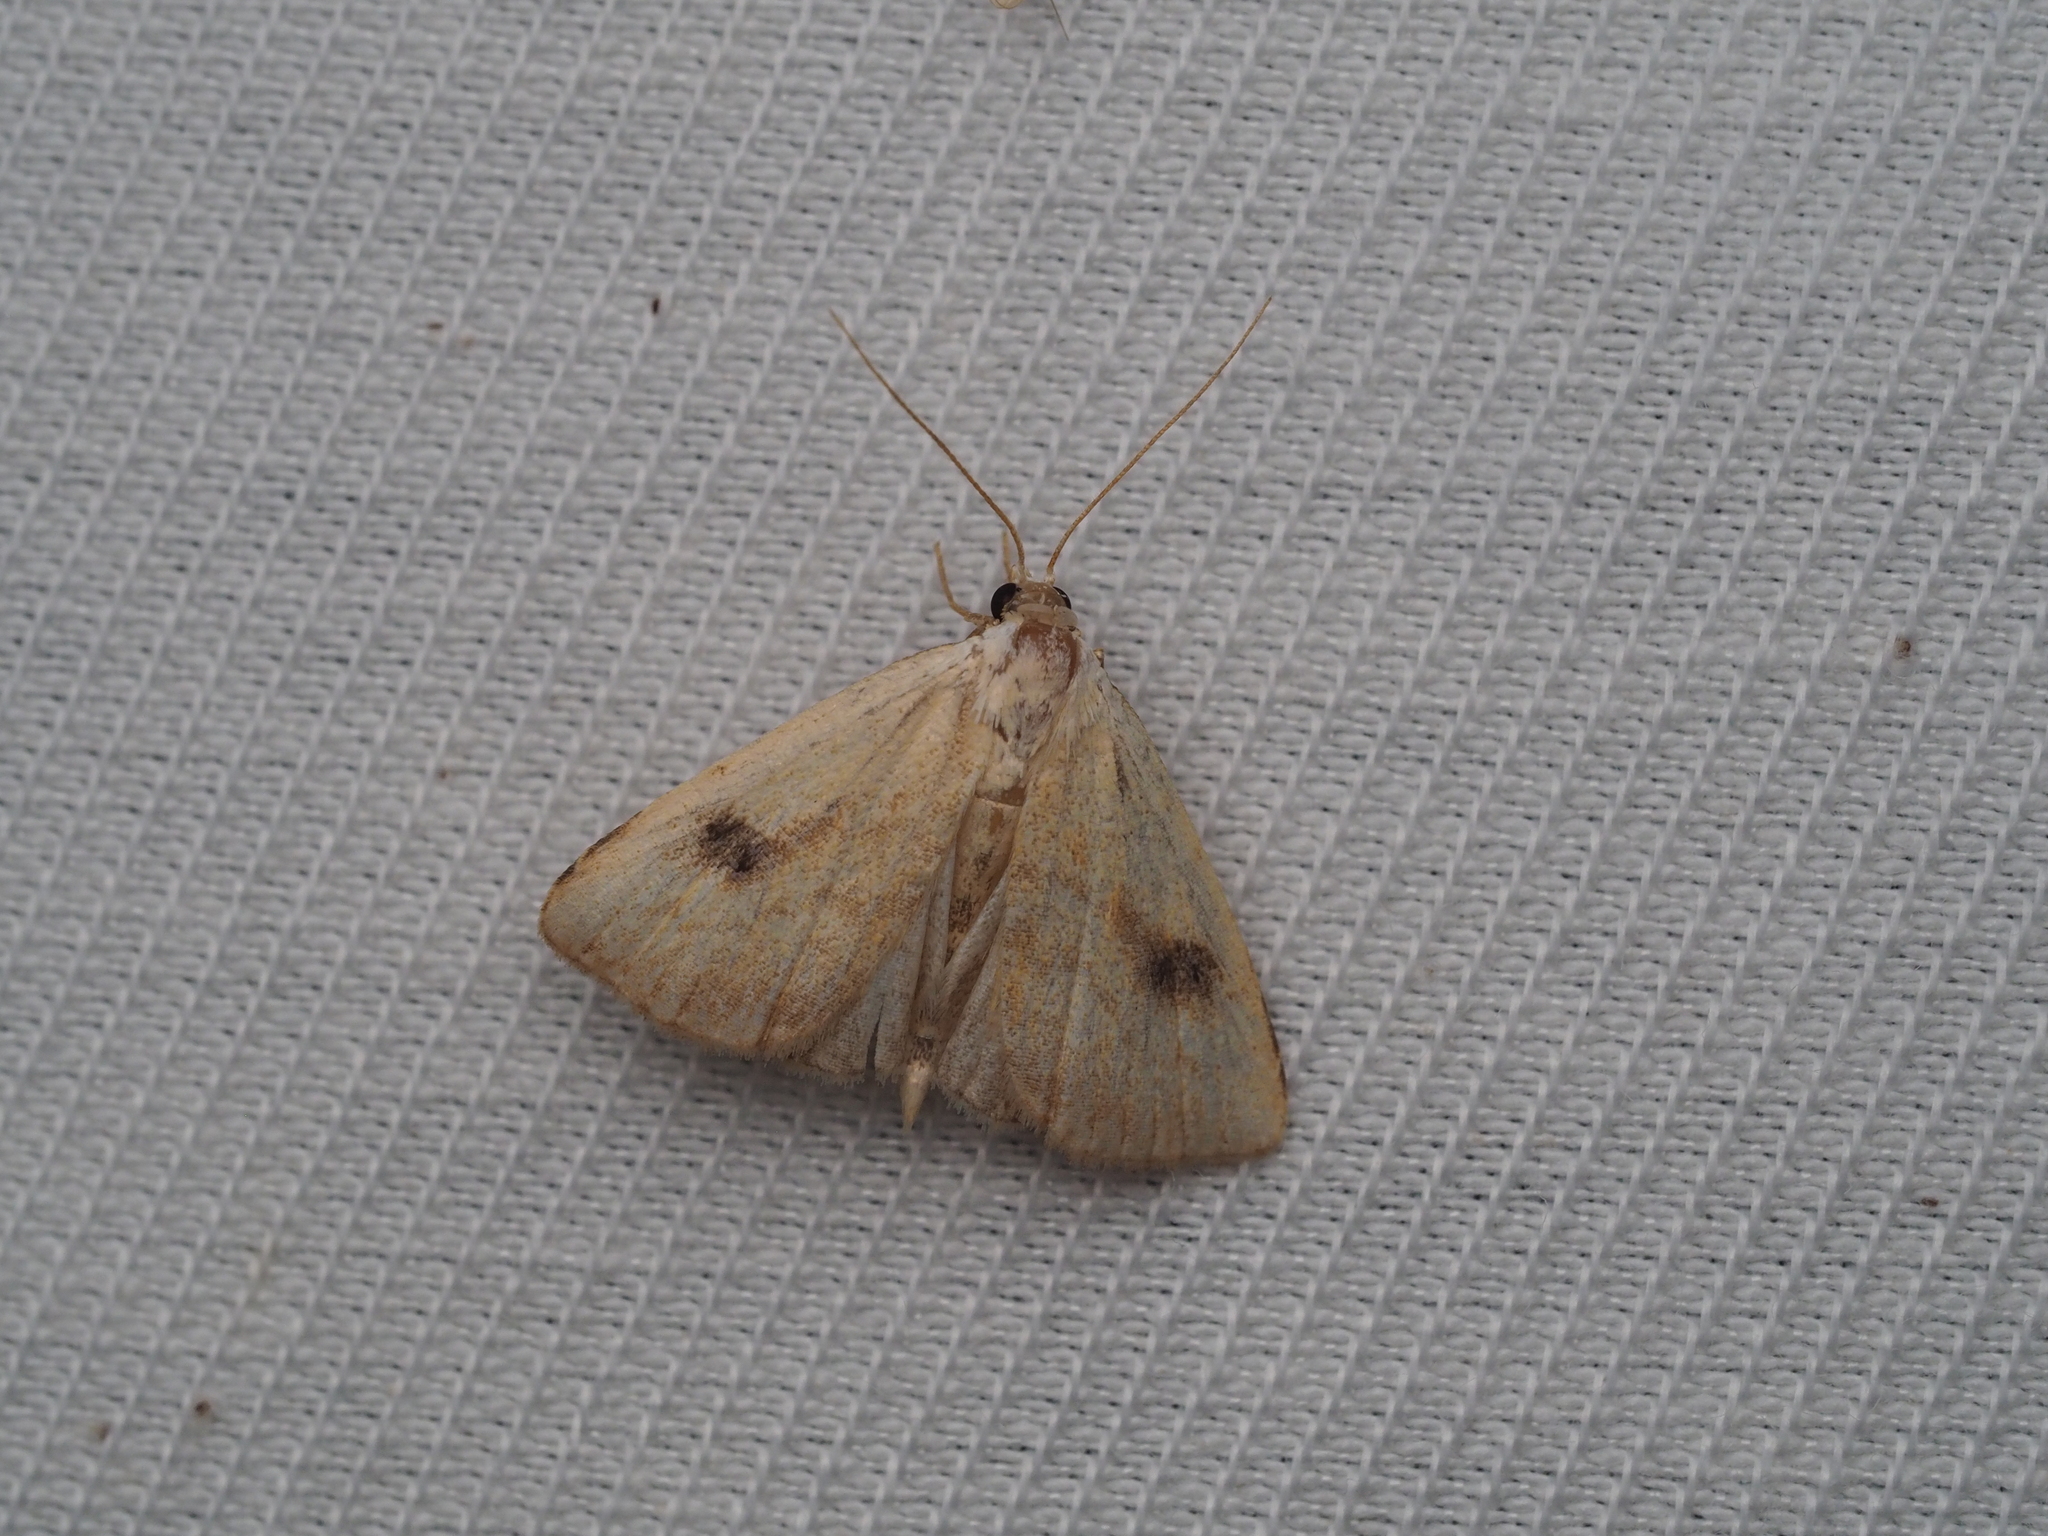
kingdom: Animalia
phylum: Arthropoda
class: Insecta
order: Lepidoptera
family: Erebidae
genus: Rivula
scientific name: Rivula sericealis
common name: Straw dot
